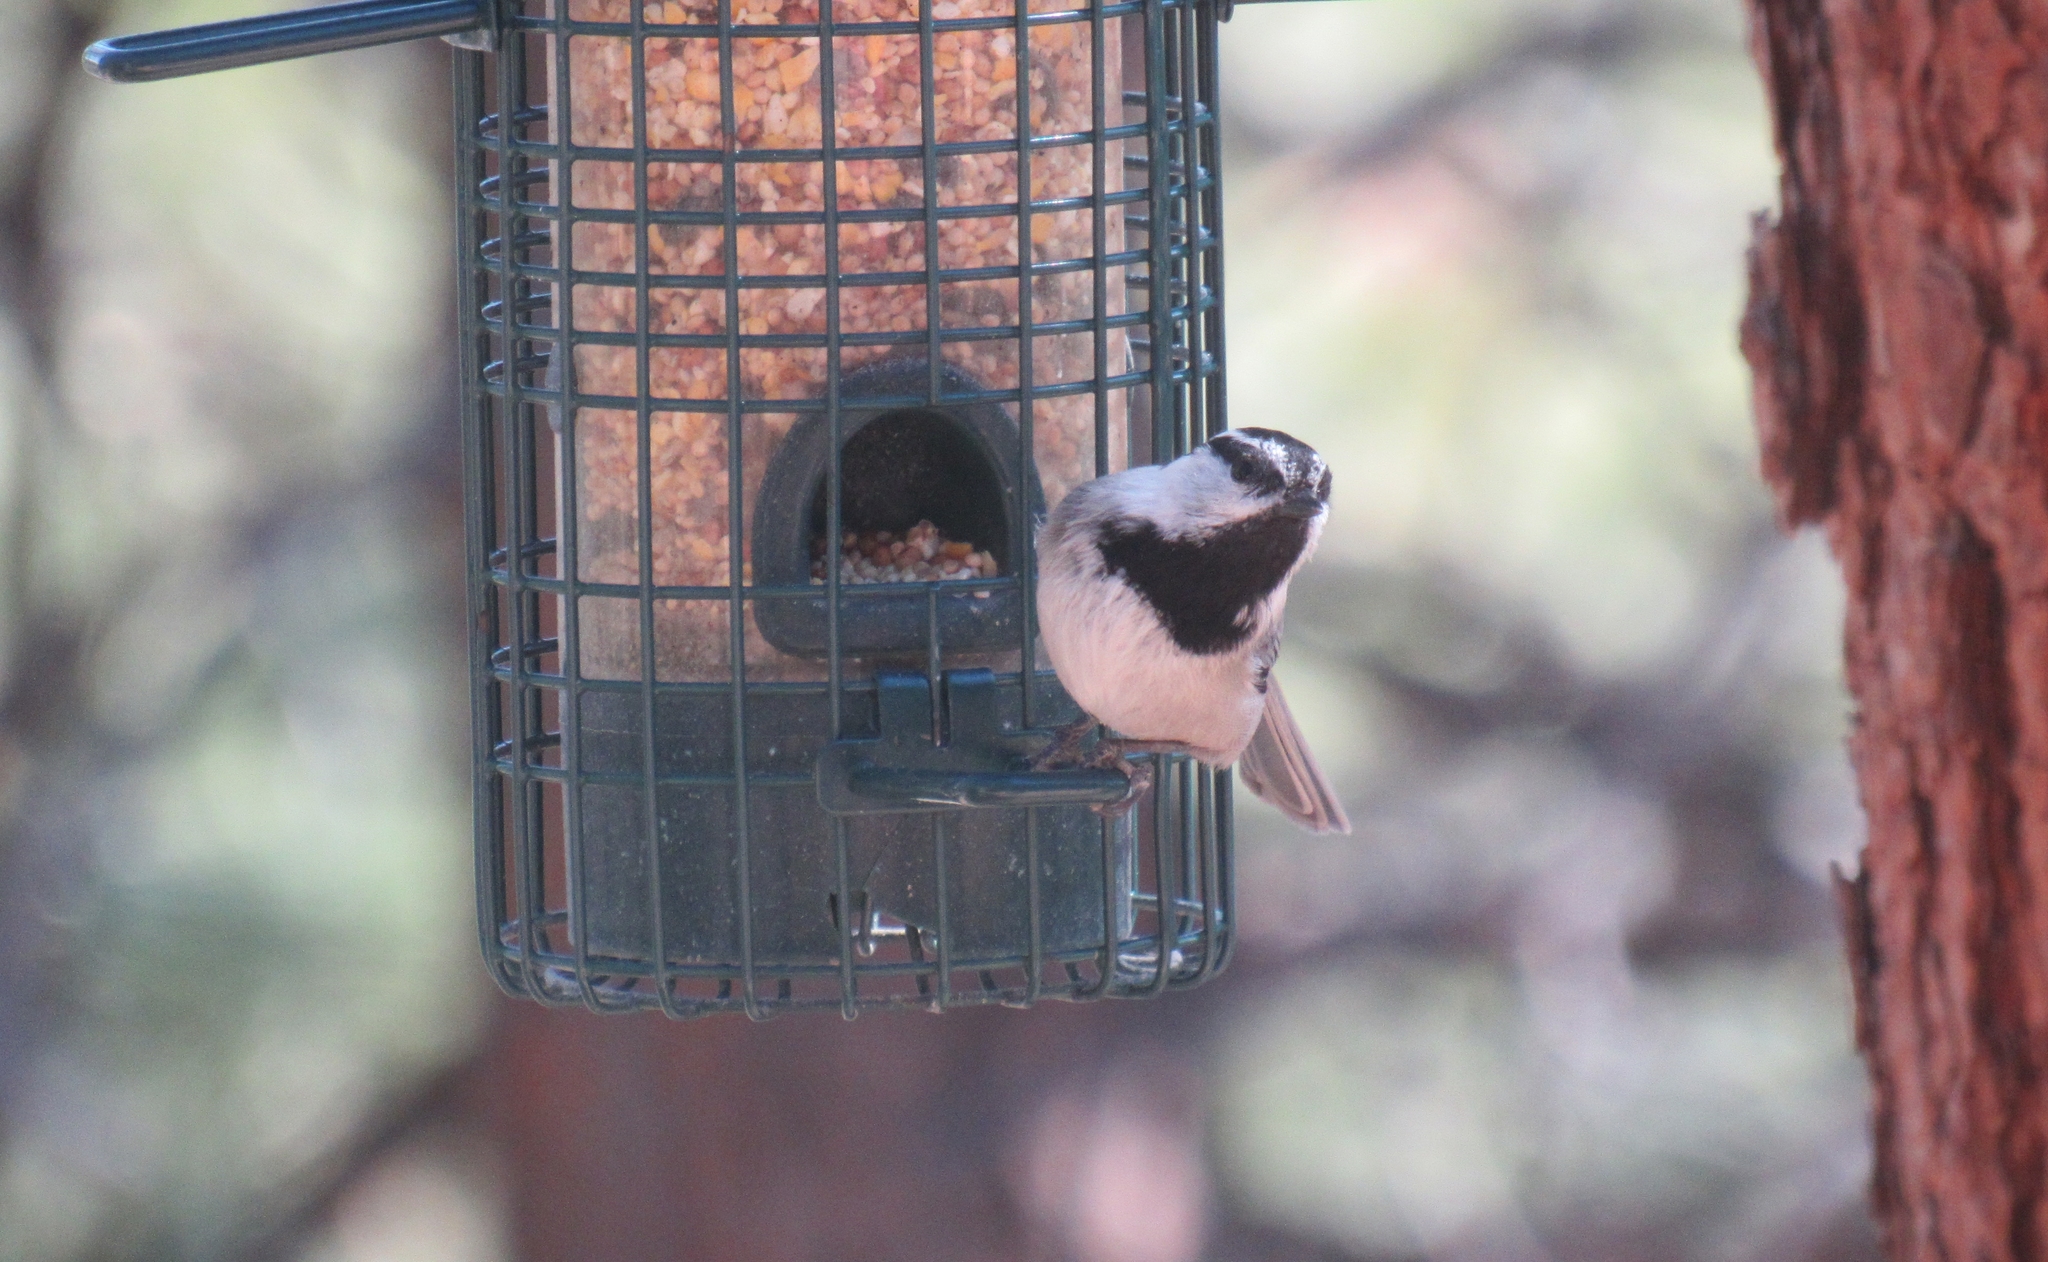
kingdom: Animalia
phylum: Chordata
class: Aves
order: Passeriformes
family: Paridae
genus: Poecile
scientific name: Poecile gambeli
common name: Mountain chickadee
